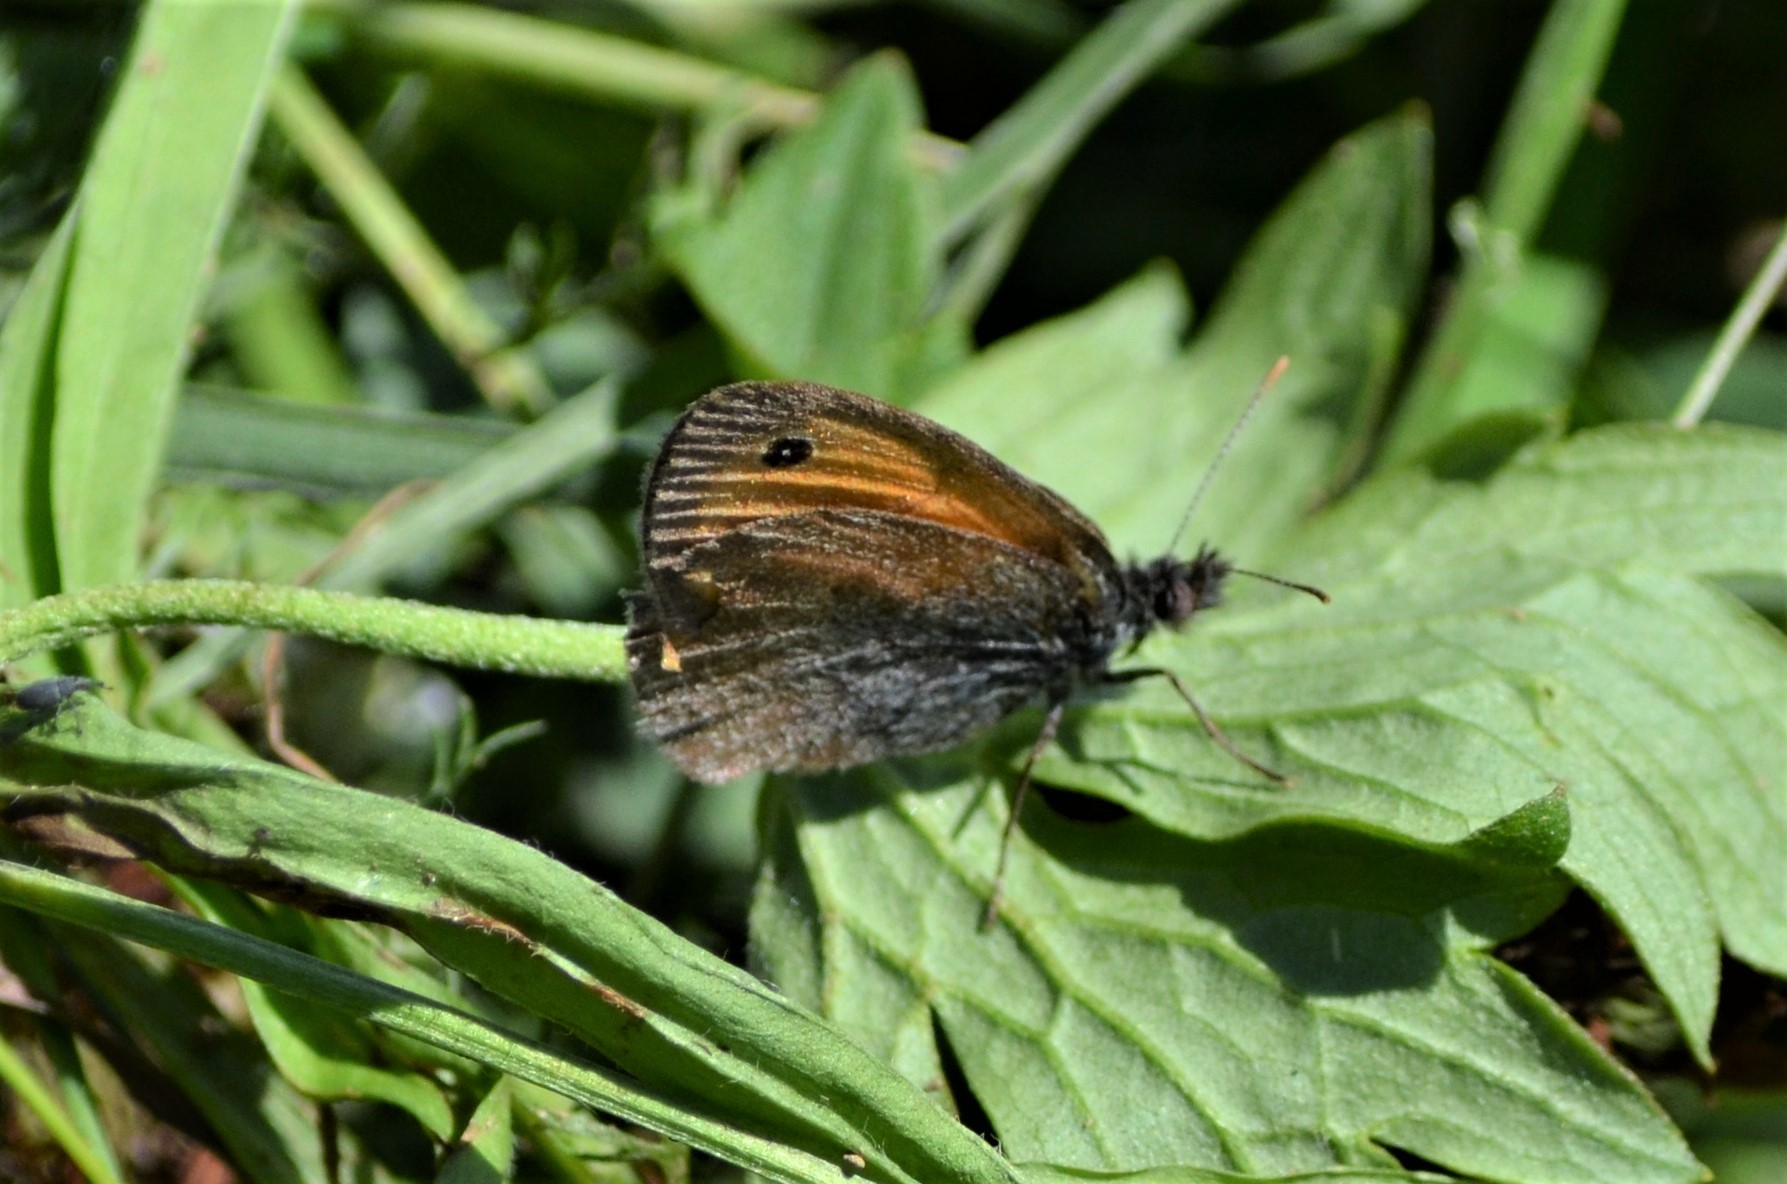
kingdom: Animalia
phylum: Arthropoda
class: Insecta
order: Lepidoptera
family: Nymphalidae
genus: Coenonympha
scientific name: Coenonympha pamphilus
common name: Small heath
